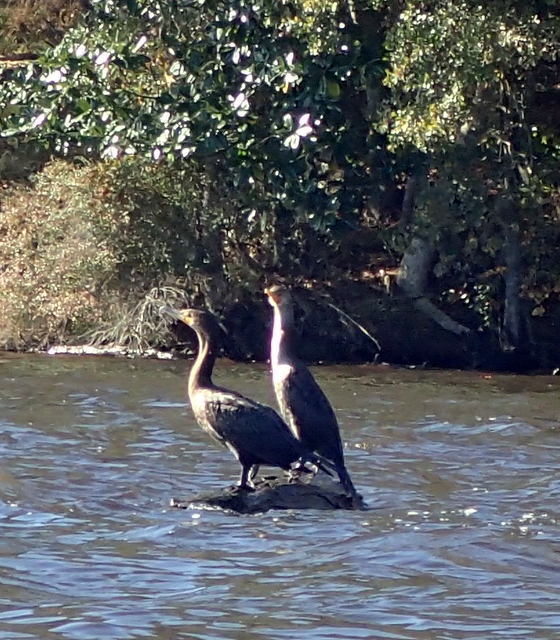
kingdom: Animalia
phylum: Chordata
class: Aves
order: Suliformes
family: Phalacrocoracidae
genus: Phalacrocorax
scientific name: Phalacrocorax auritus
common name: Double-crested cormorant
